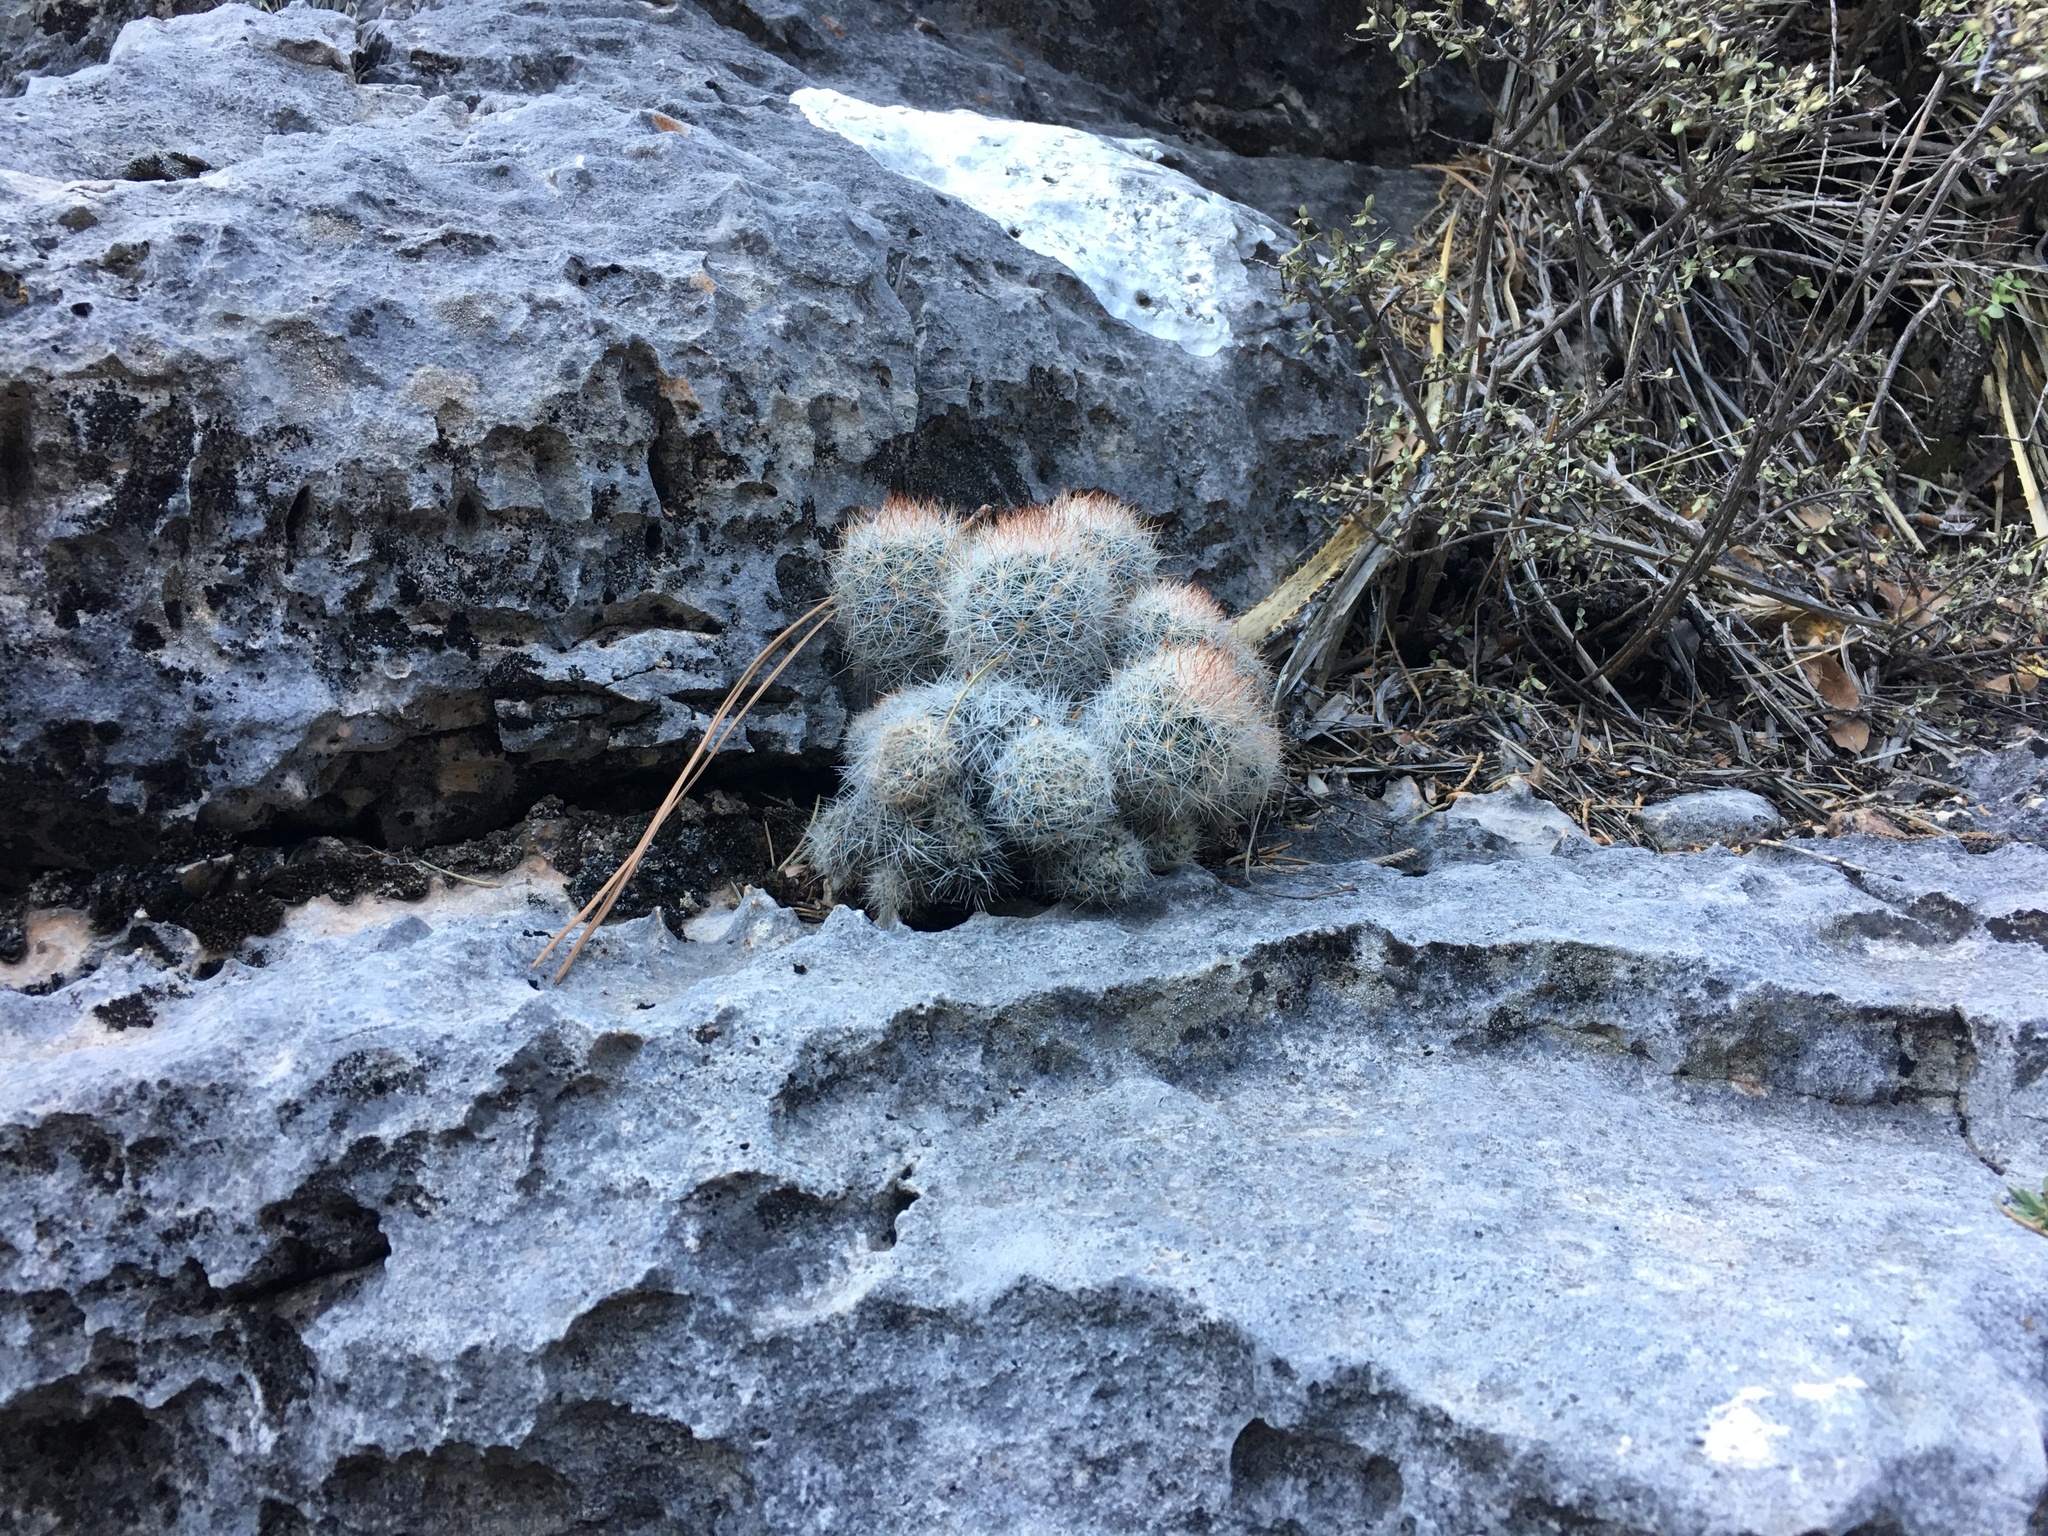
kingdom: Plantae
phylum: Tracheophyta
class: Magnoliopsida
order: Caryophyllales
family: Cactaceae
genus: Pelecyphora
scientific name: Pelecyphora sneedii
